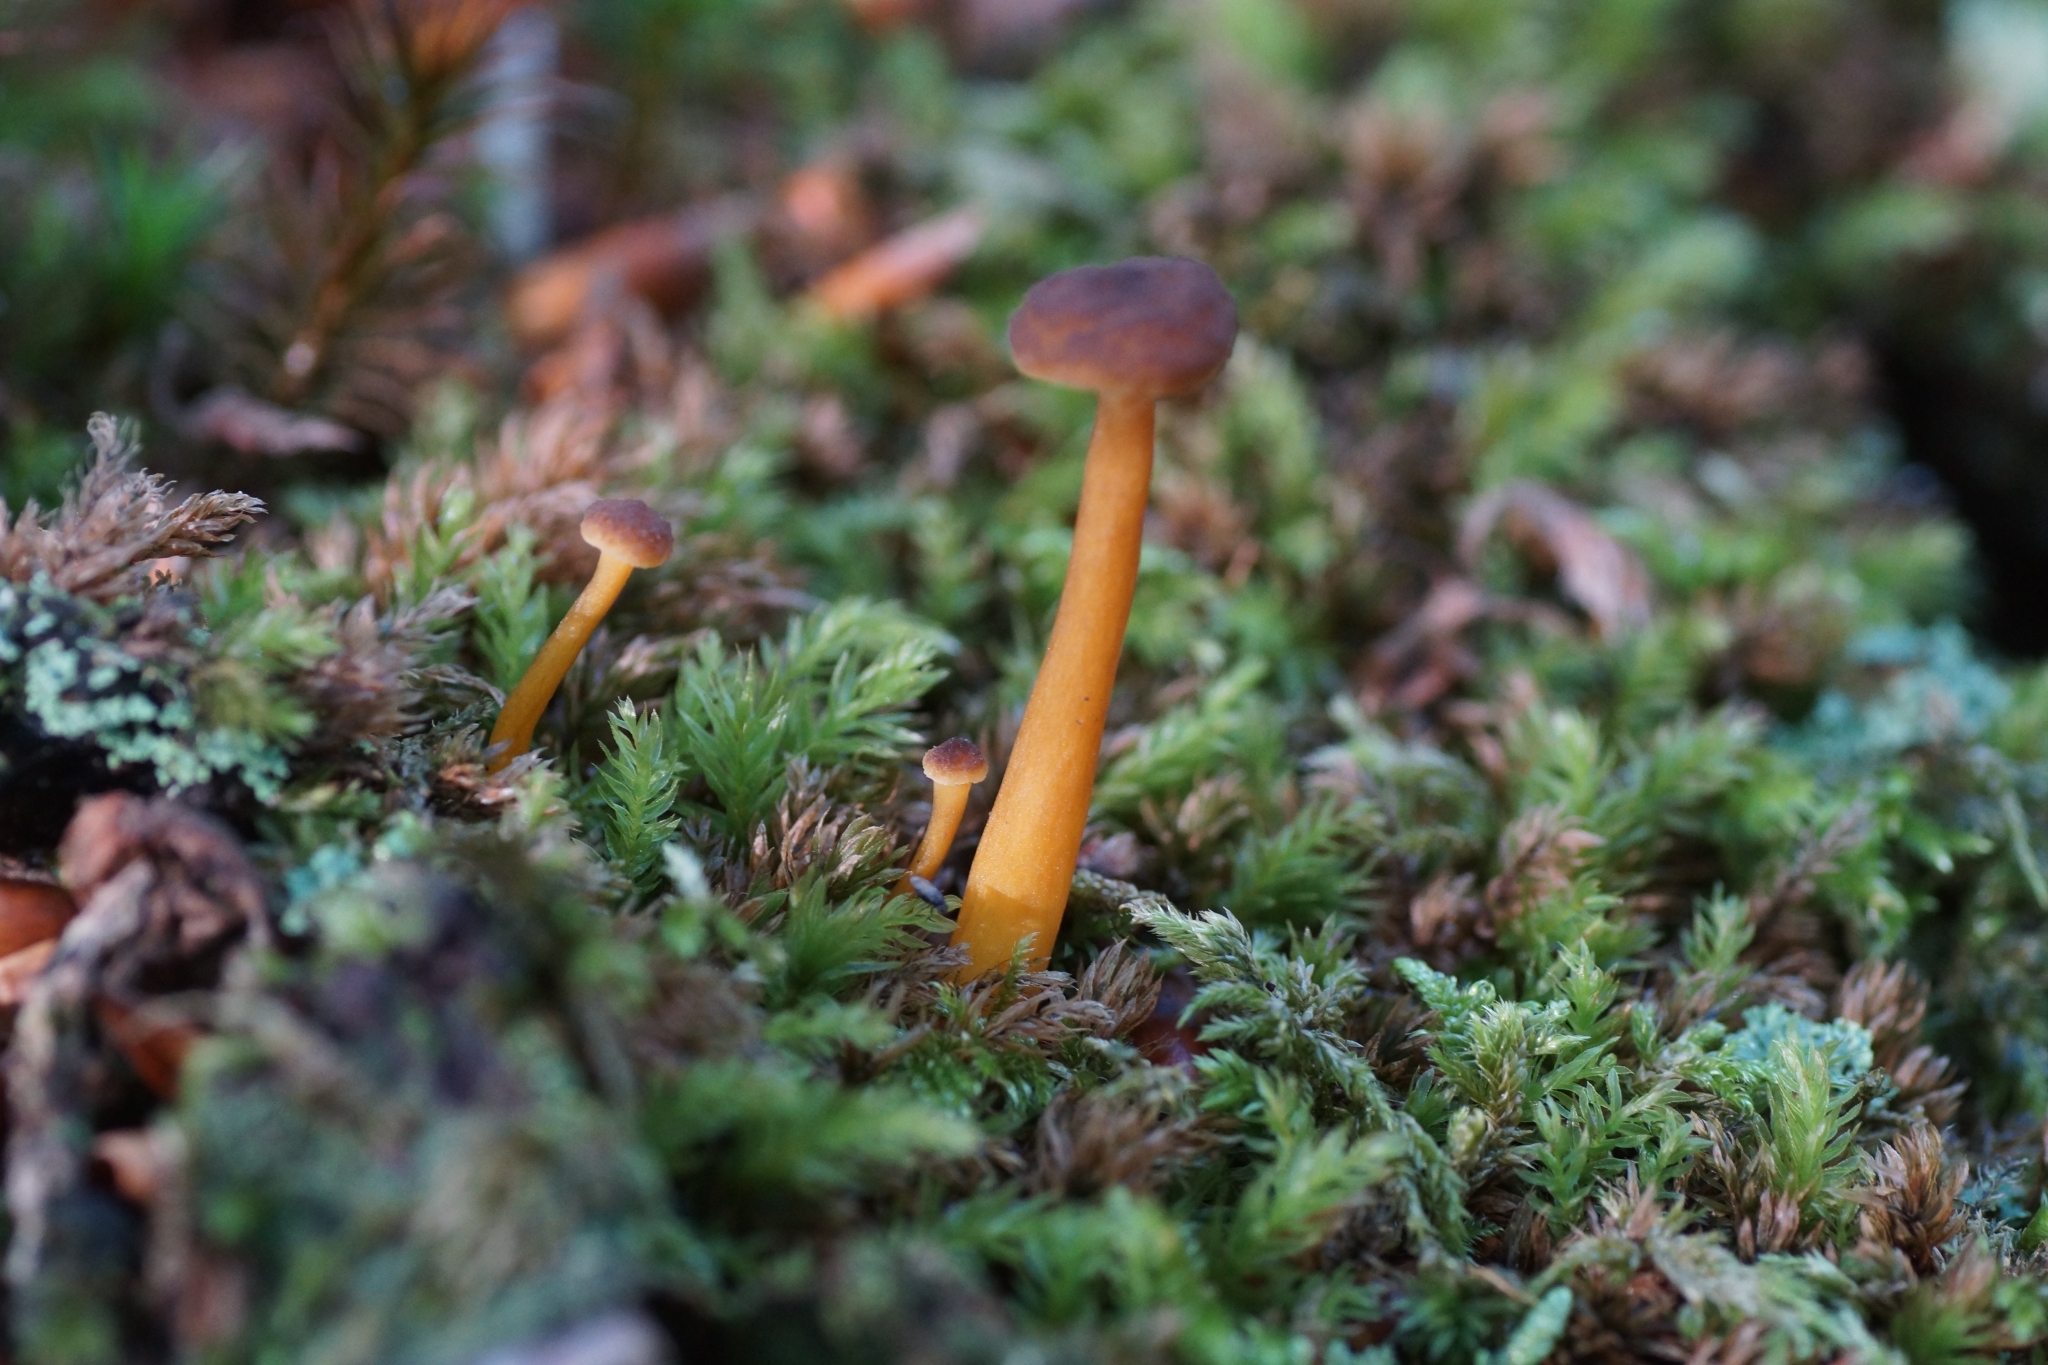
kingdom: Fungi
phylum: Basidiomycota
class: Agaricomycetes
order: Cantharellales
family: Hydnaceae
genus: Craterellus
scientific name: Craterellus tubaeformis
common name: Yellowfoot
